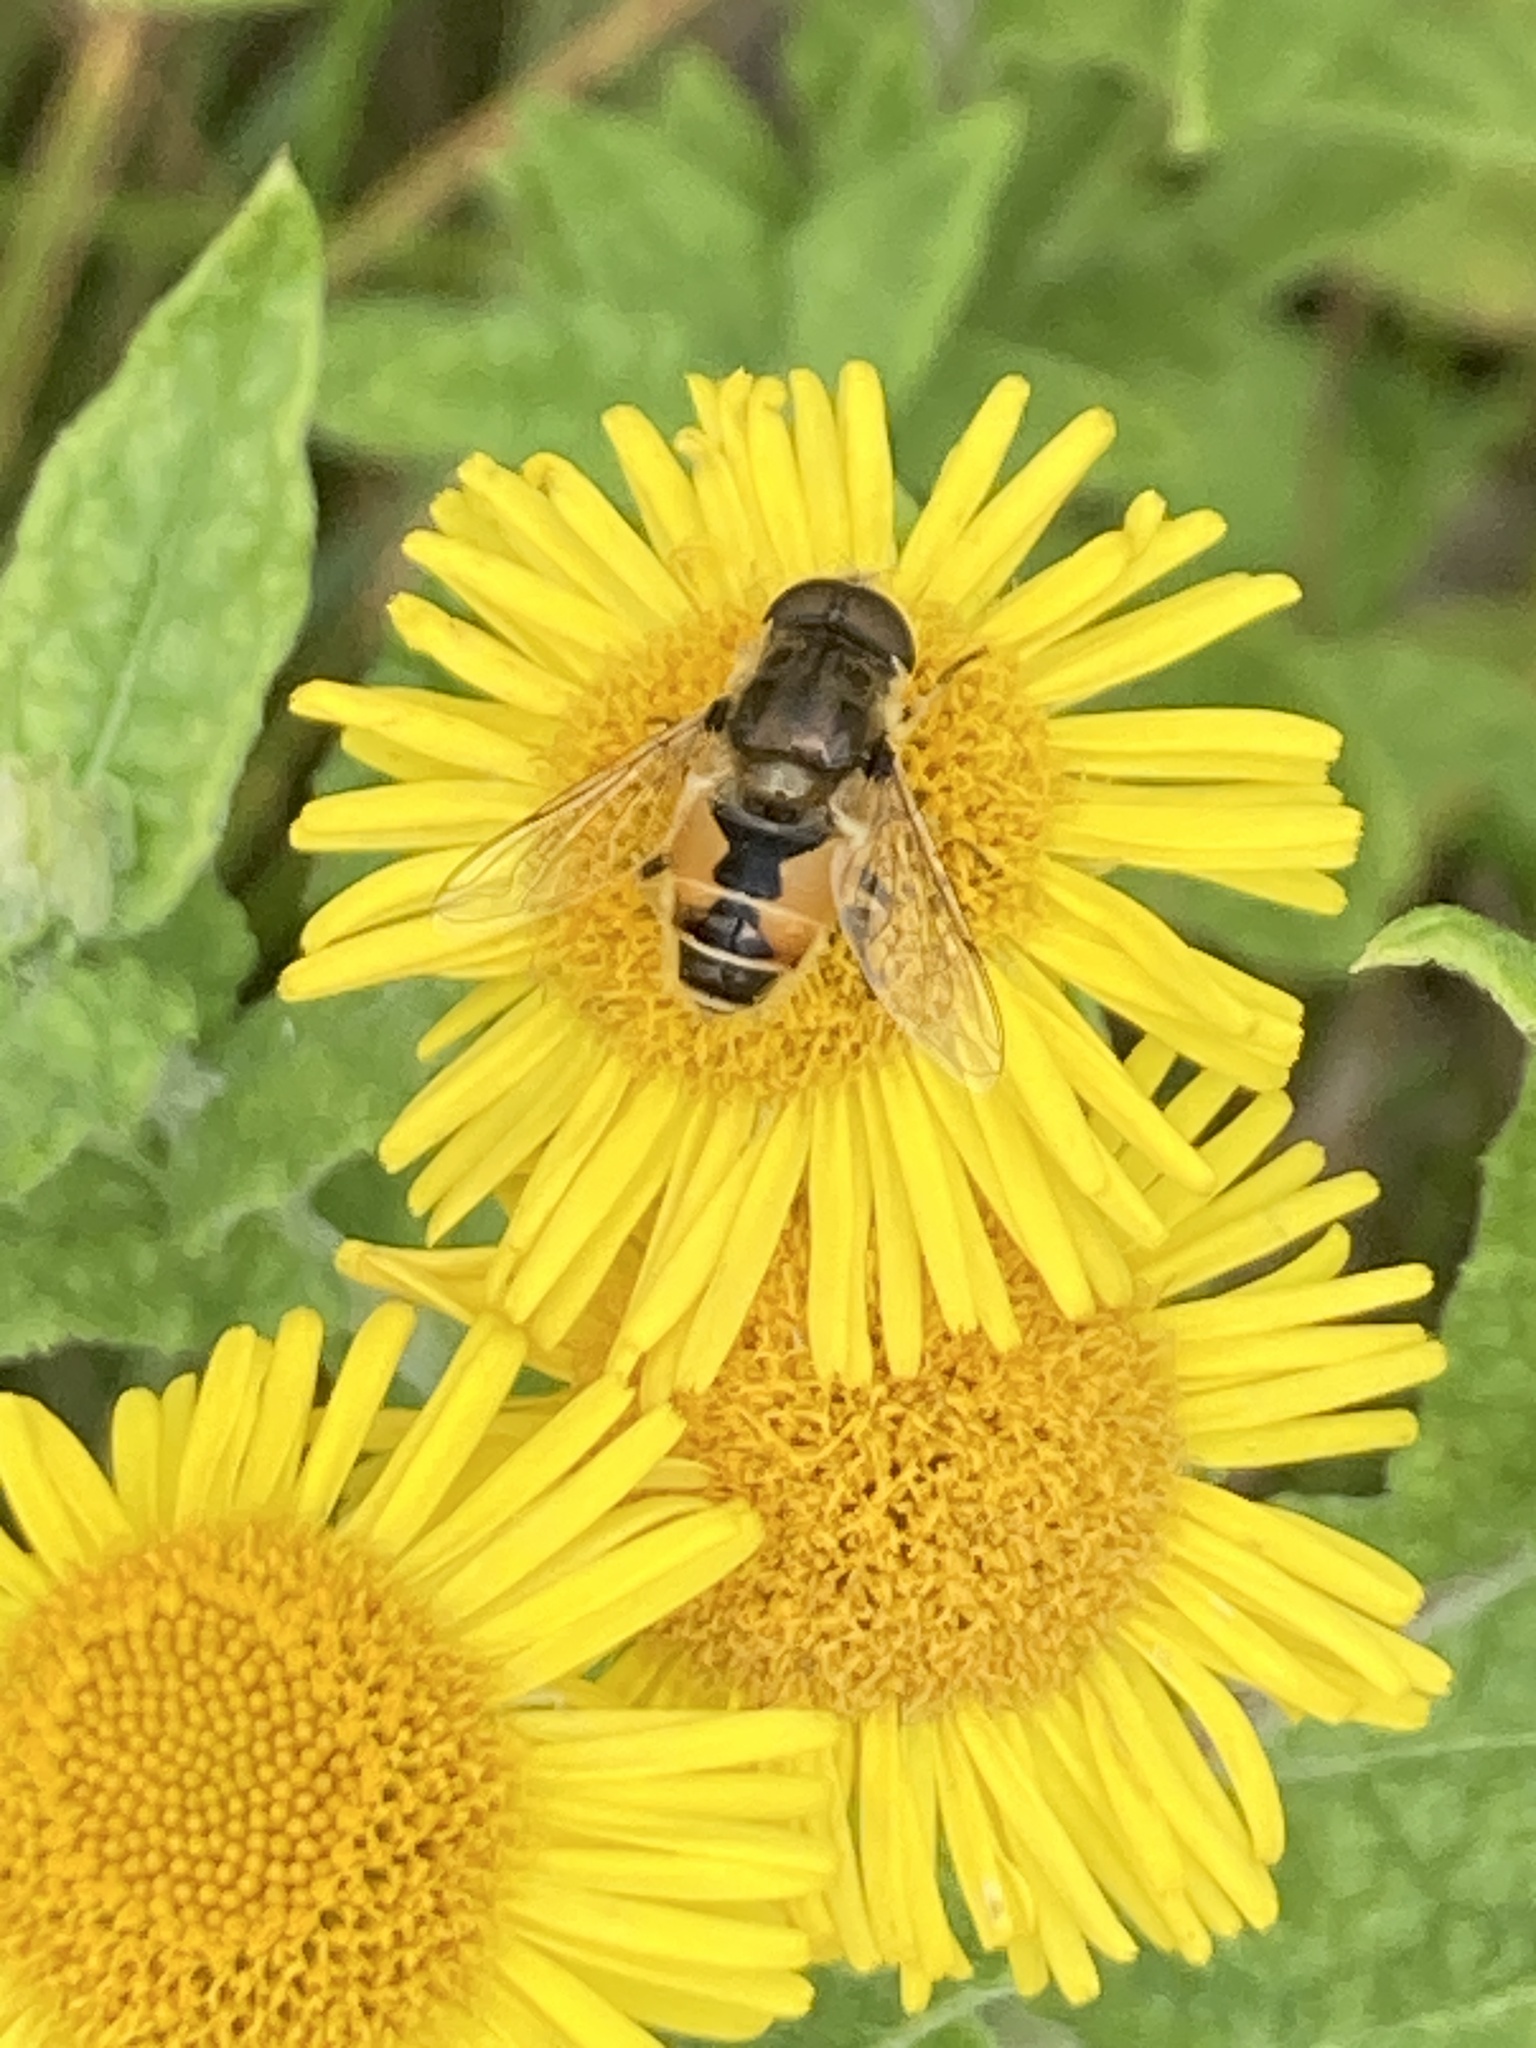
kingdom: Animalia
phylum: Arthropoda
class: Insecta
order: Diptera
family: Syrphidae
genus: Eristalis
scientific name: Eristalis arbustorum
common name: Hover fly
